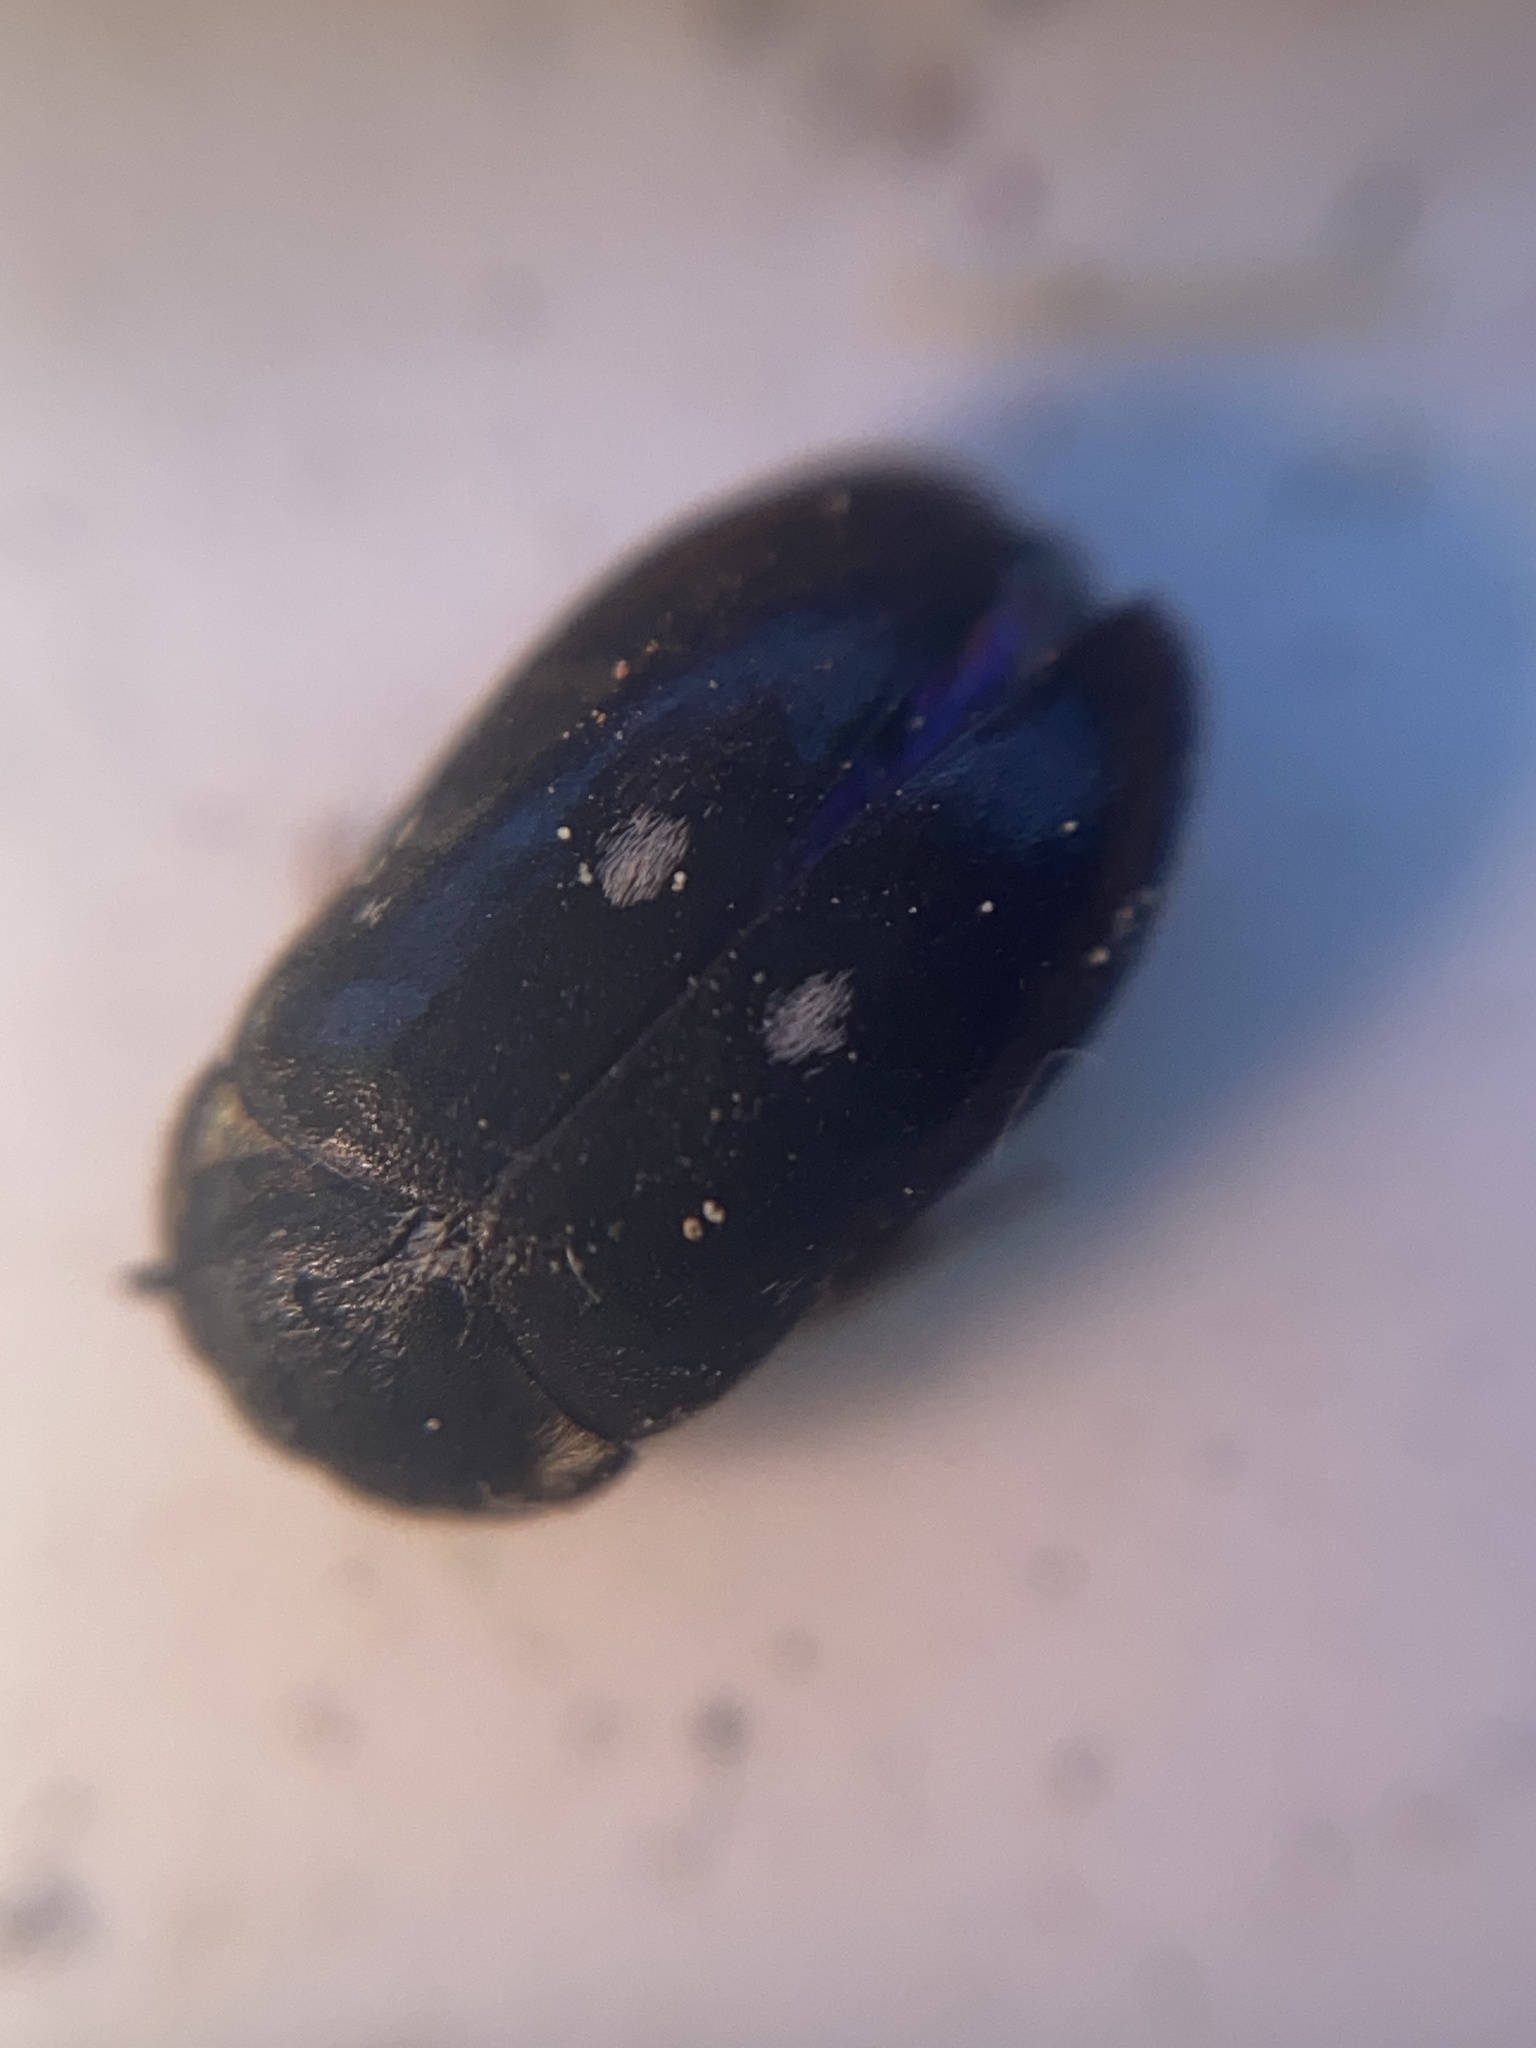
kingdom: Animalia
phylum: Arthropoda
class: Insecta
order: Coleoptera
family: Dermestidae
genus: Attagenus
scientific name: Attagenus pellio
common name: Two-spotted carpet beetle
